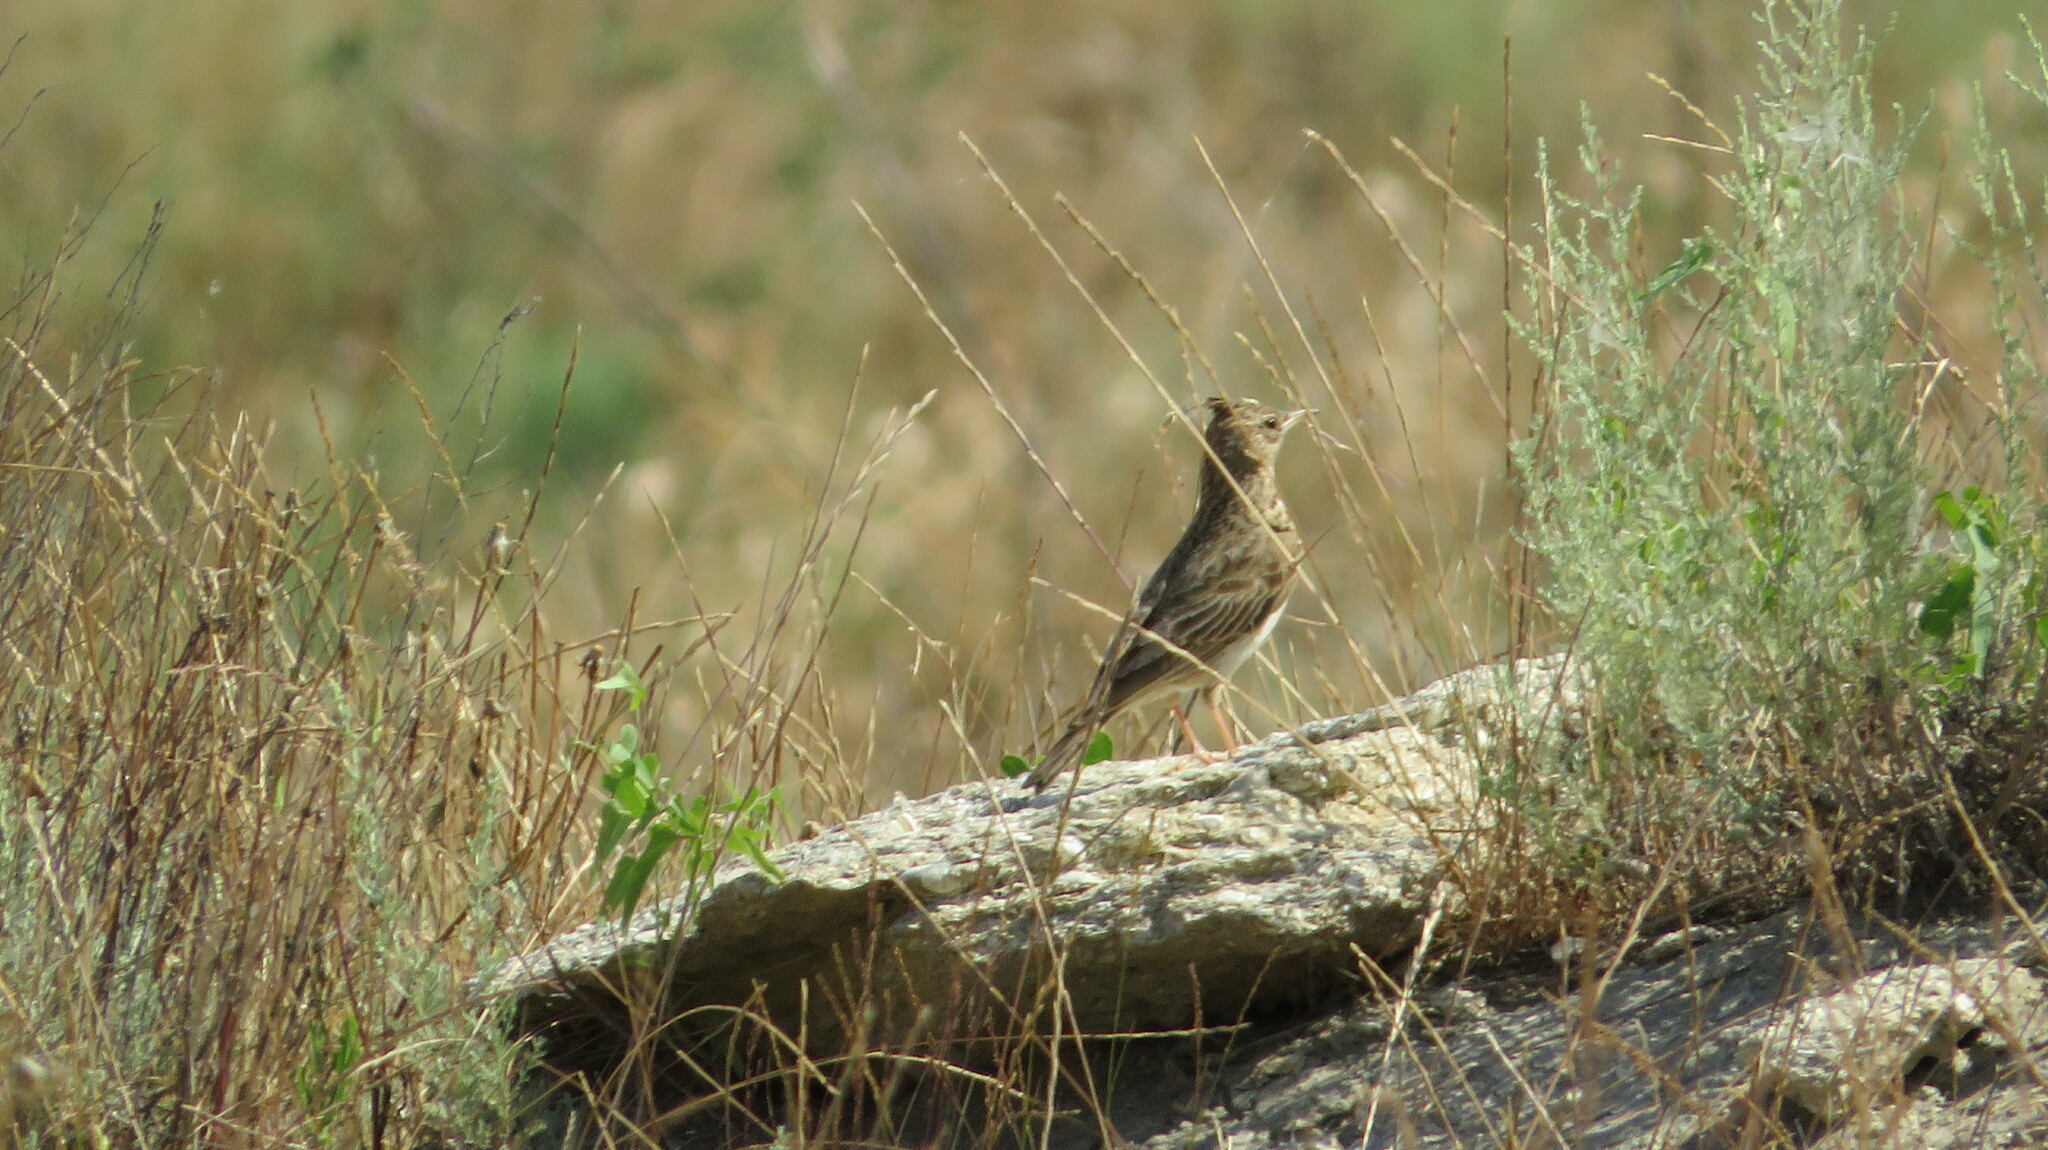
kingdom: Animalia
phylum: Chordata
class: Aves
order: Passeriformes
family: Alaudidae
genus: Galerida
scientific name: Galerida cristata
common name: Crested lark
